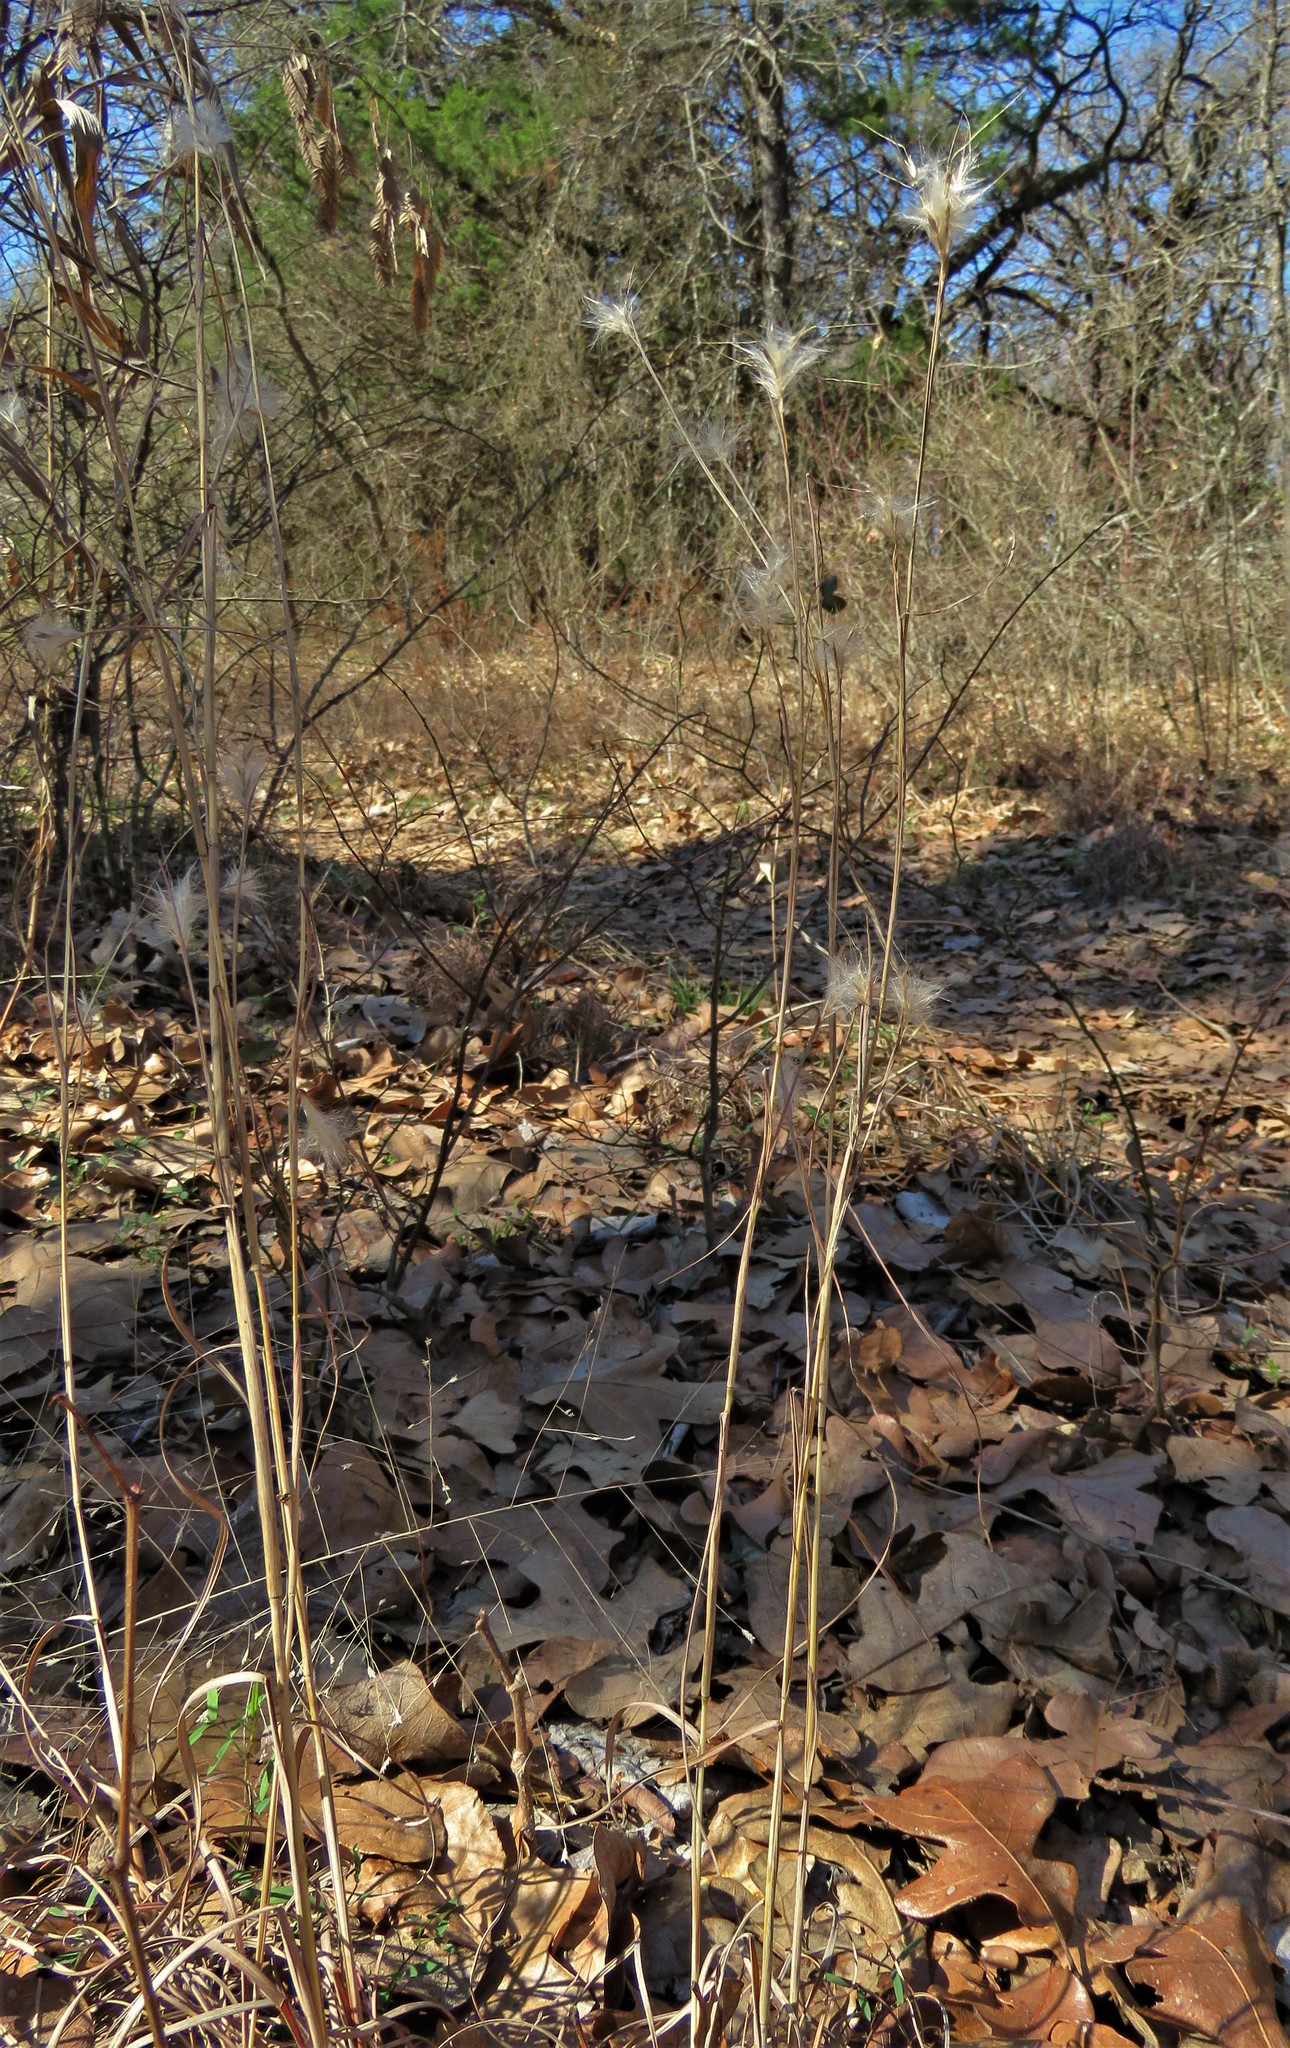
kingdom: Plantae
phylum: Tracheophyta
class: Liliopsida
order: Poales
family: Poaceae
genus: Andropogon
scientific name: Andropogon ternarius
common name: Split bluestem
